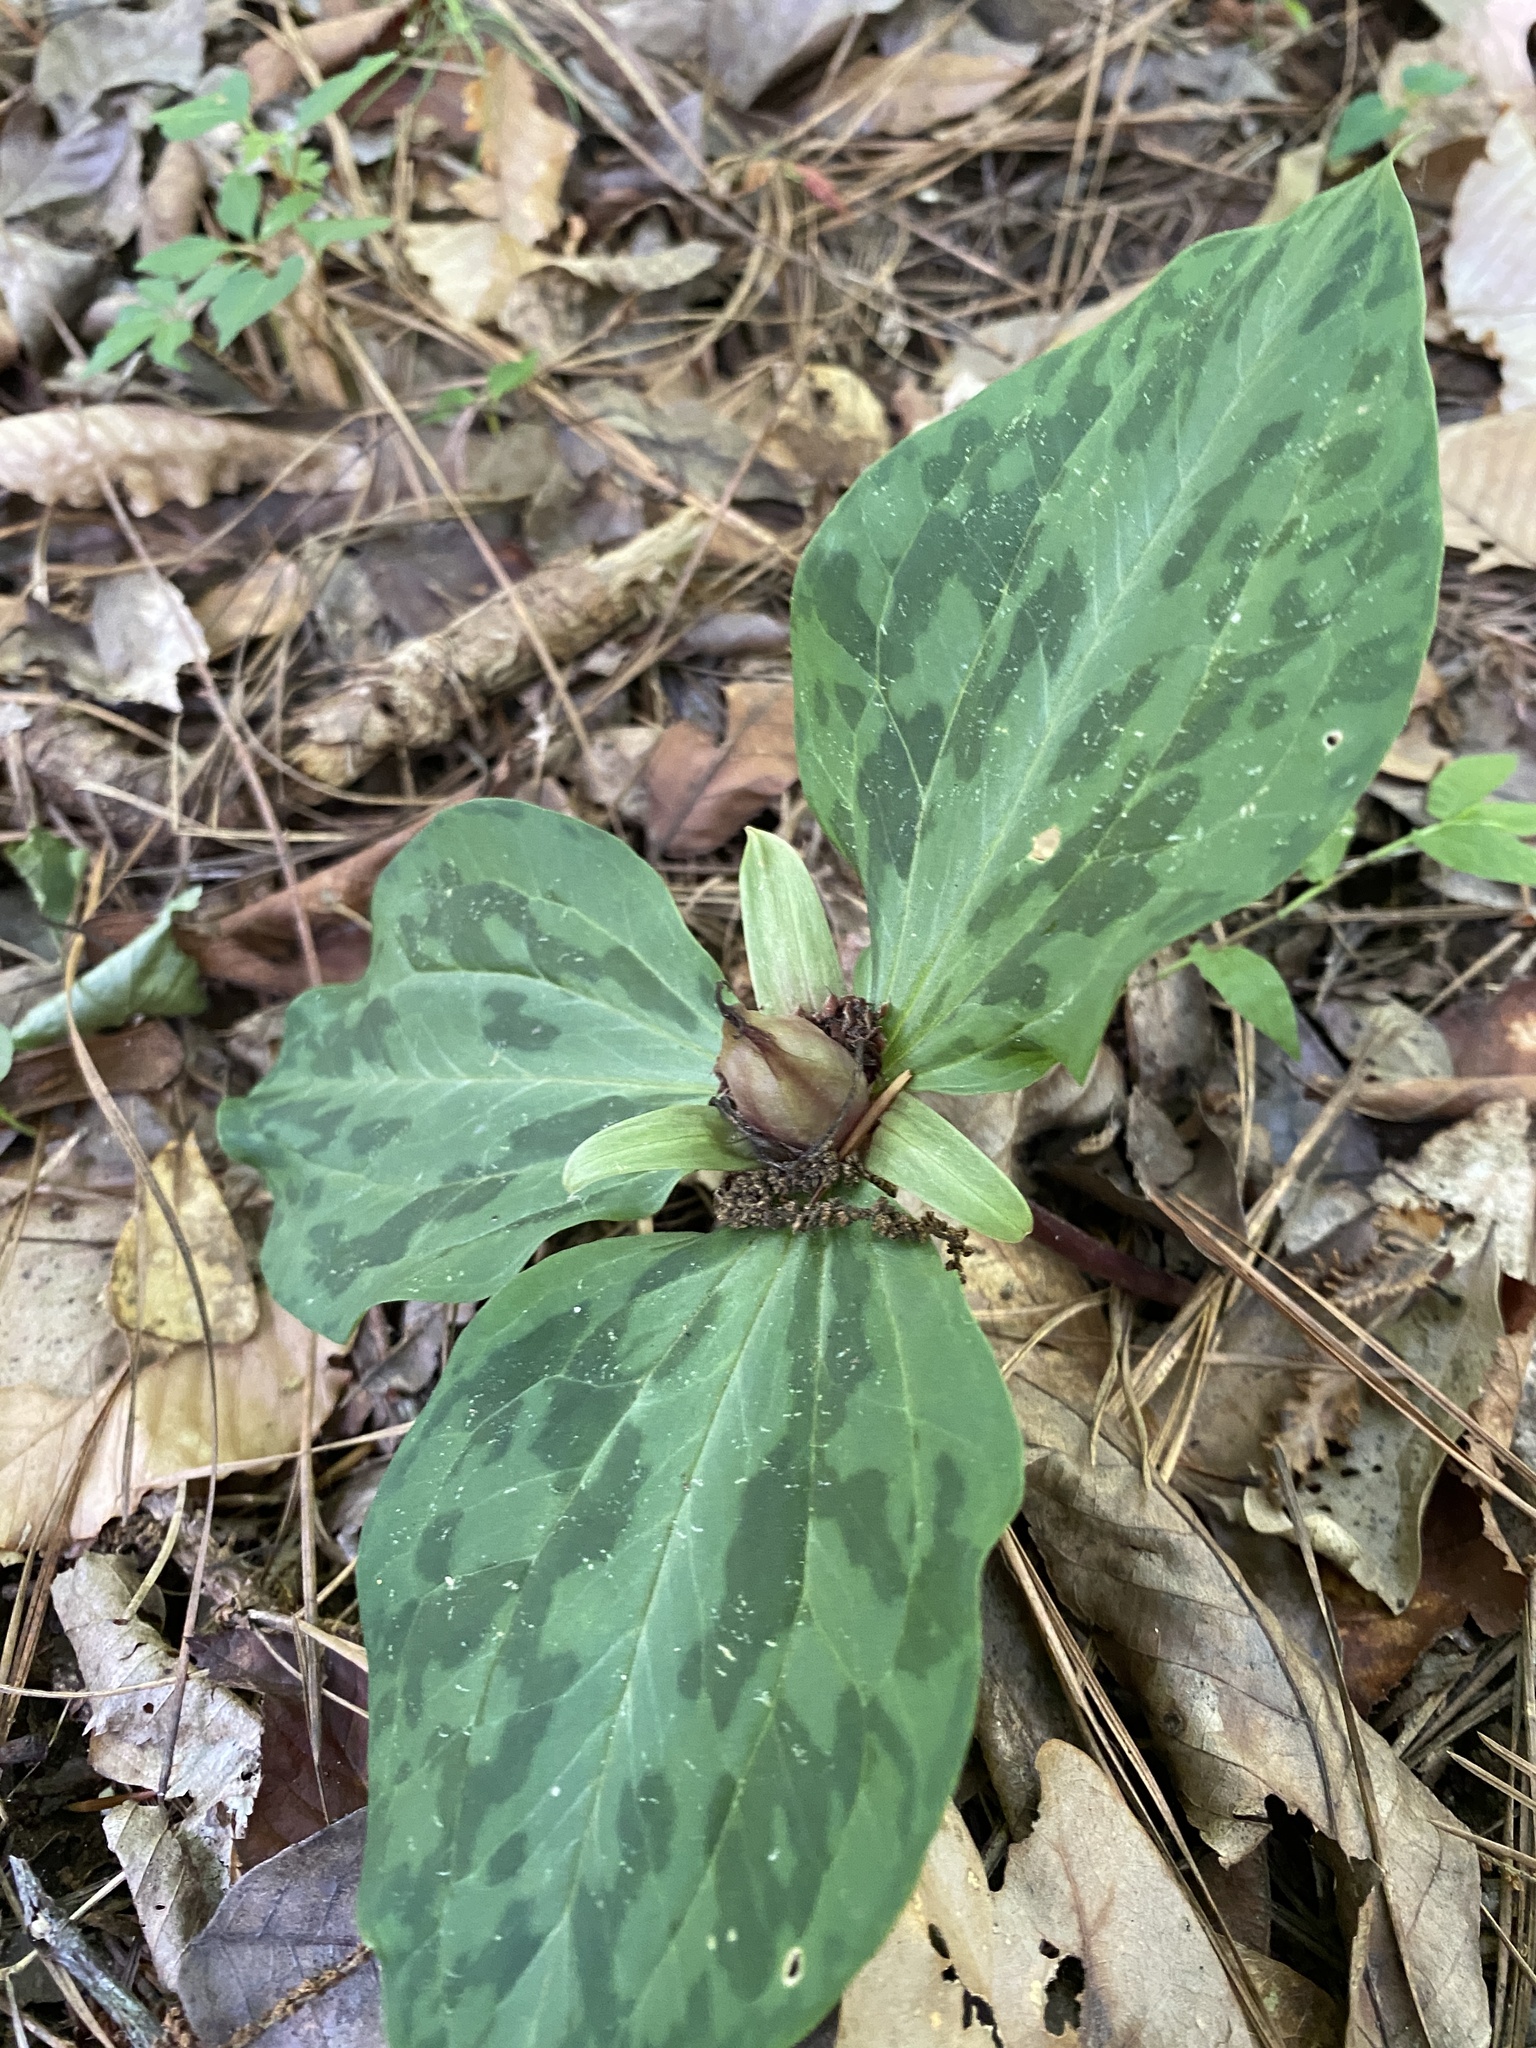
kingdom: Plantae
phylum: Tracheophyta
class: Liliopsida
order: Liliales
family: Melanthiaceae
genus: Trillium
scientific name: Trillium foetidissimum
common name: Mississippi river trillium
